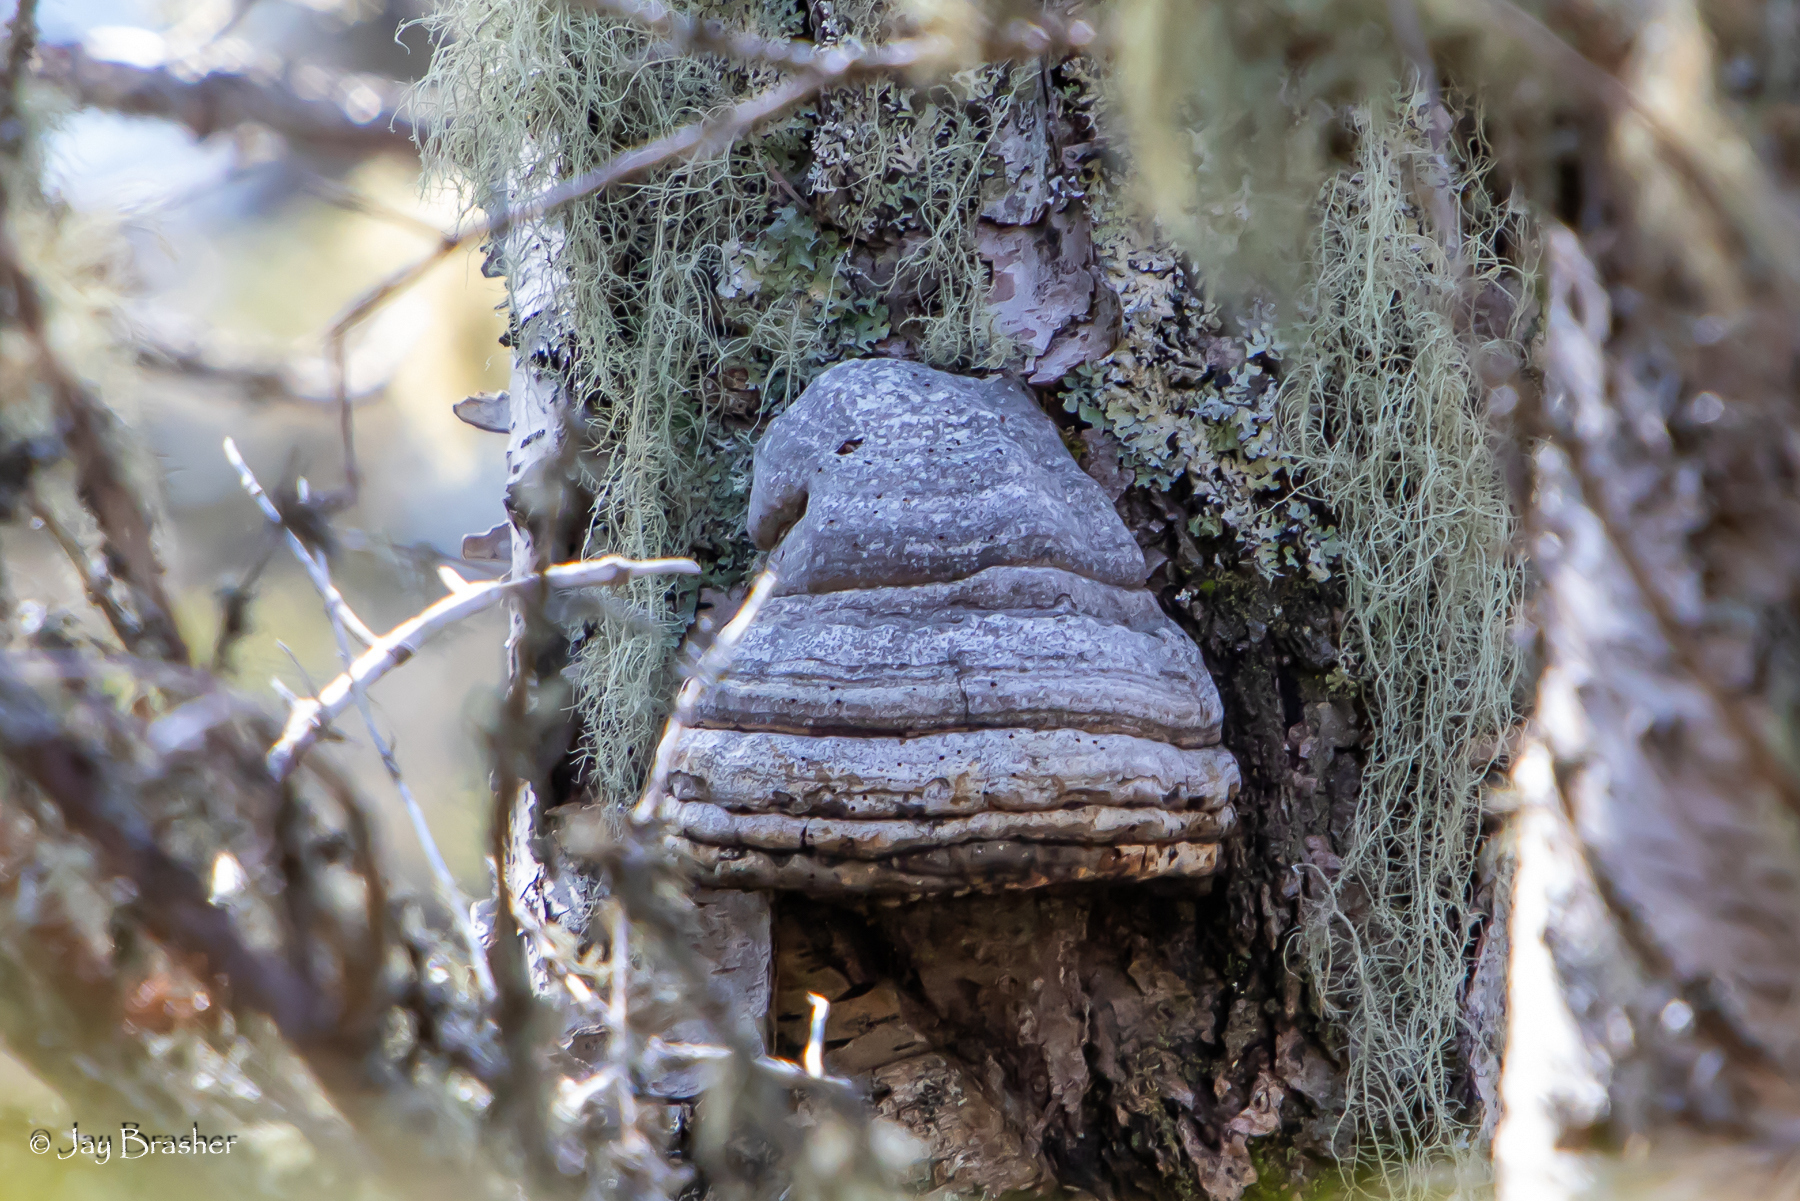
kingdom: Fungi
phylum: Basidiomycota
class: Agaricomycetes
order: Polyporales
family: Polyporaceae
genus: Fomes
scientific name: Fomes fomentarius
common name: Hoof fungus
